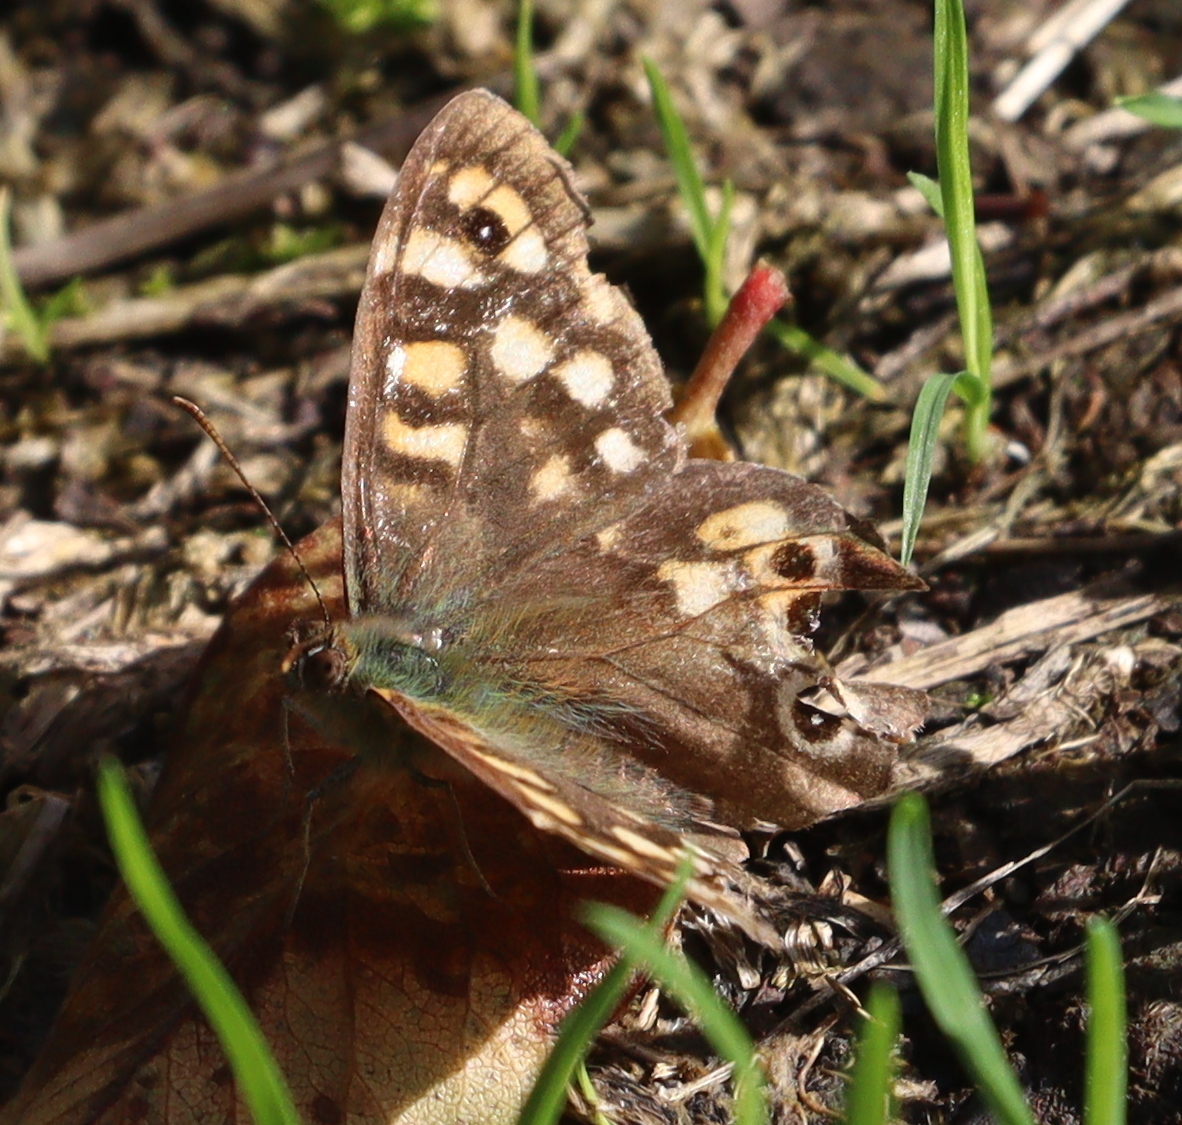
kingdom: Animalia
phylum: Arthropoda
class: Insecta
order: Lepidoptera
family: Nymphalidae
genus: Pararge
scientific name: Pararge aegeria
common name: Speckled wood
